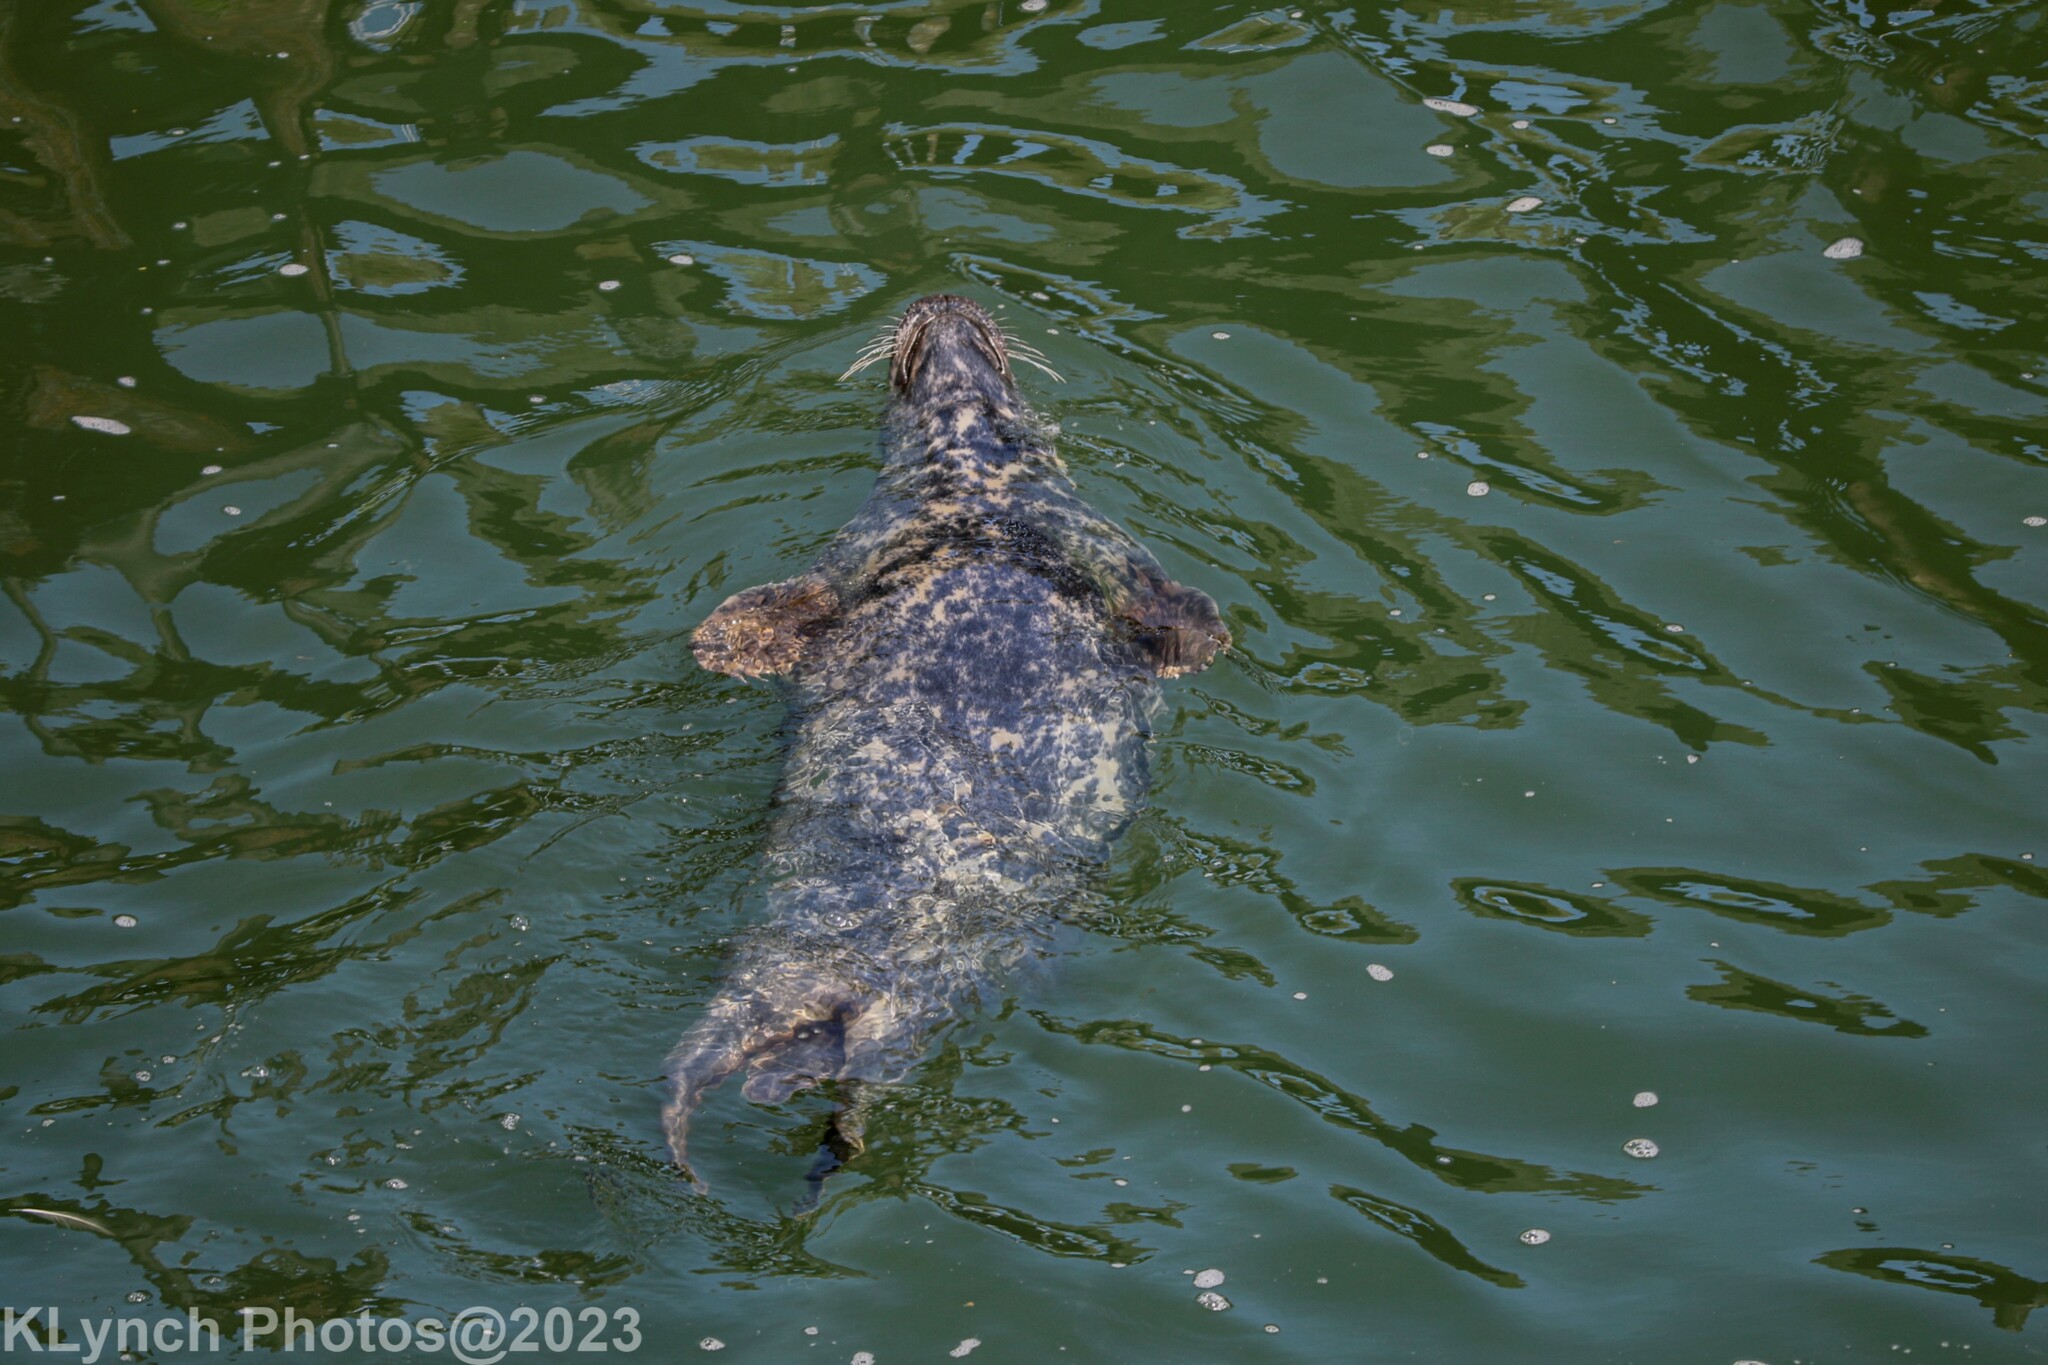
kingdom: Animalia
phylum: Chordata
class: Mammalia
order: Carnivora
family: Phocidae
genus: Halichoerus
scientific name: Halichoerus grypus
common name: Grey seal
